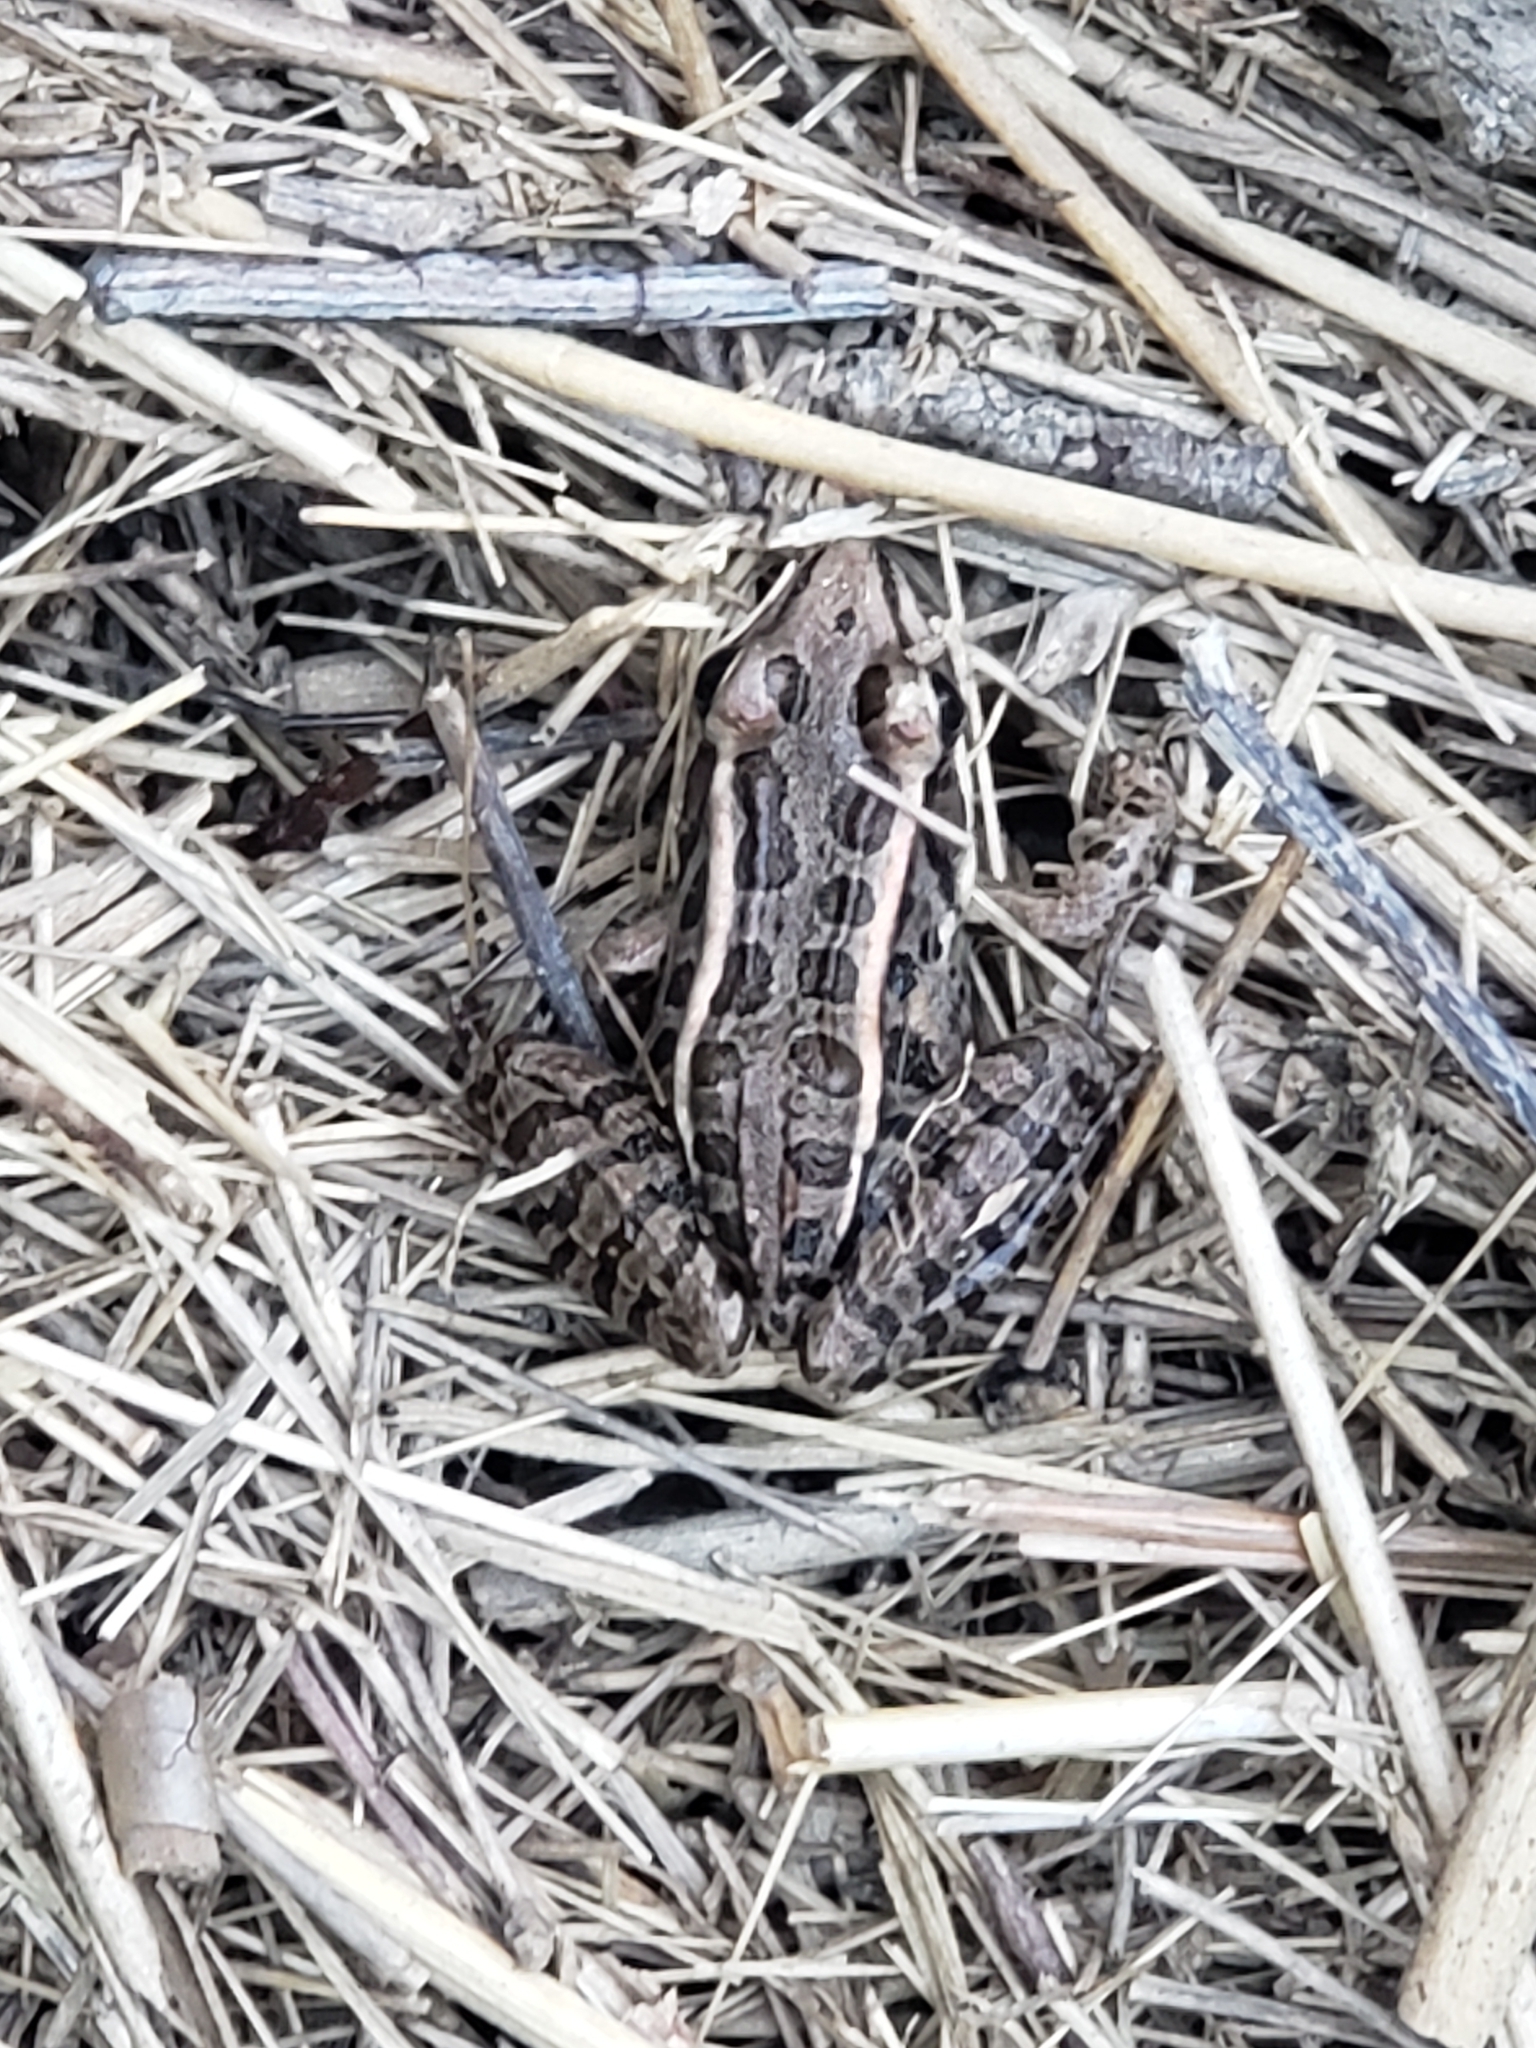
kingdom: Animalia
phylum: Chordata
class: Amphibia
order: Anura
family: Ranidae
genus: Lithobates
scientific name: Lithobates palustris
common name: Pickerel frog
